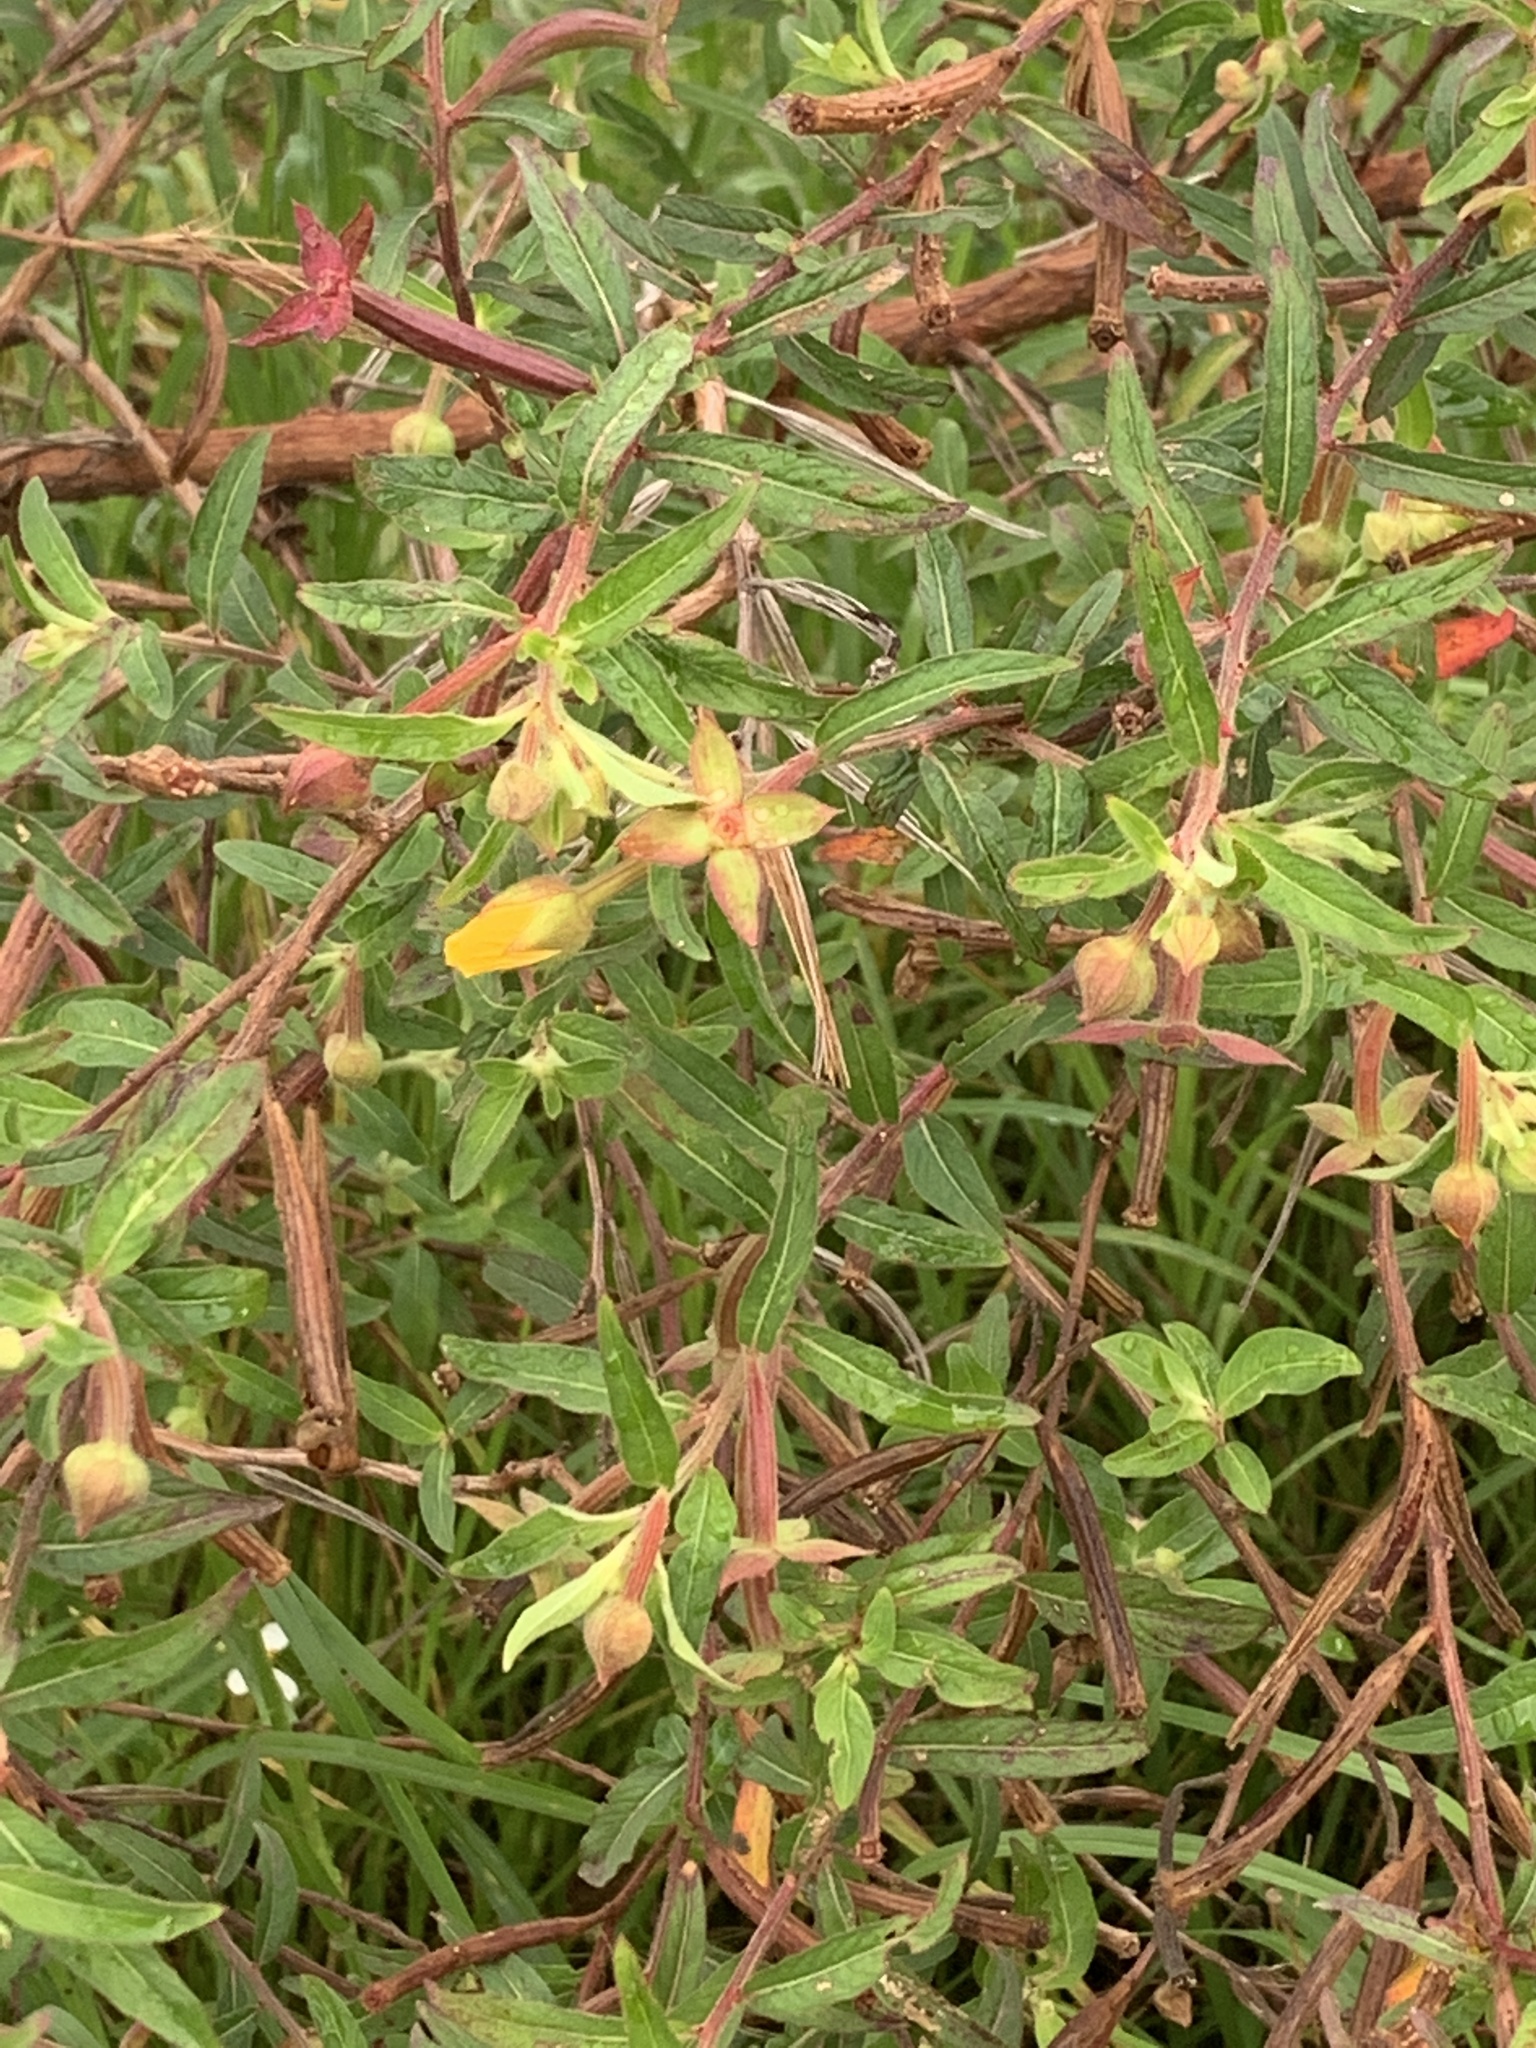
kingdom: Plantae
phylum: Tracheophyta
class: Magnoliopsida
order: Myrtales
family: Onagraceae
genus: Ludwigia
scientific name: Ludwigia octovalvis
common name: Water-primrose
